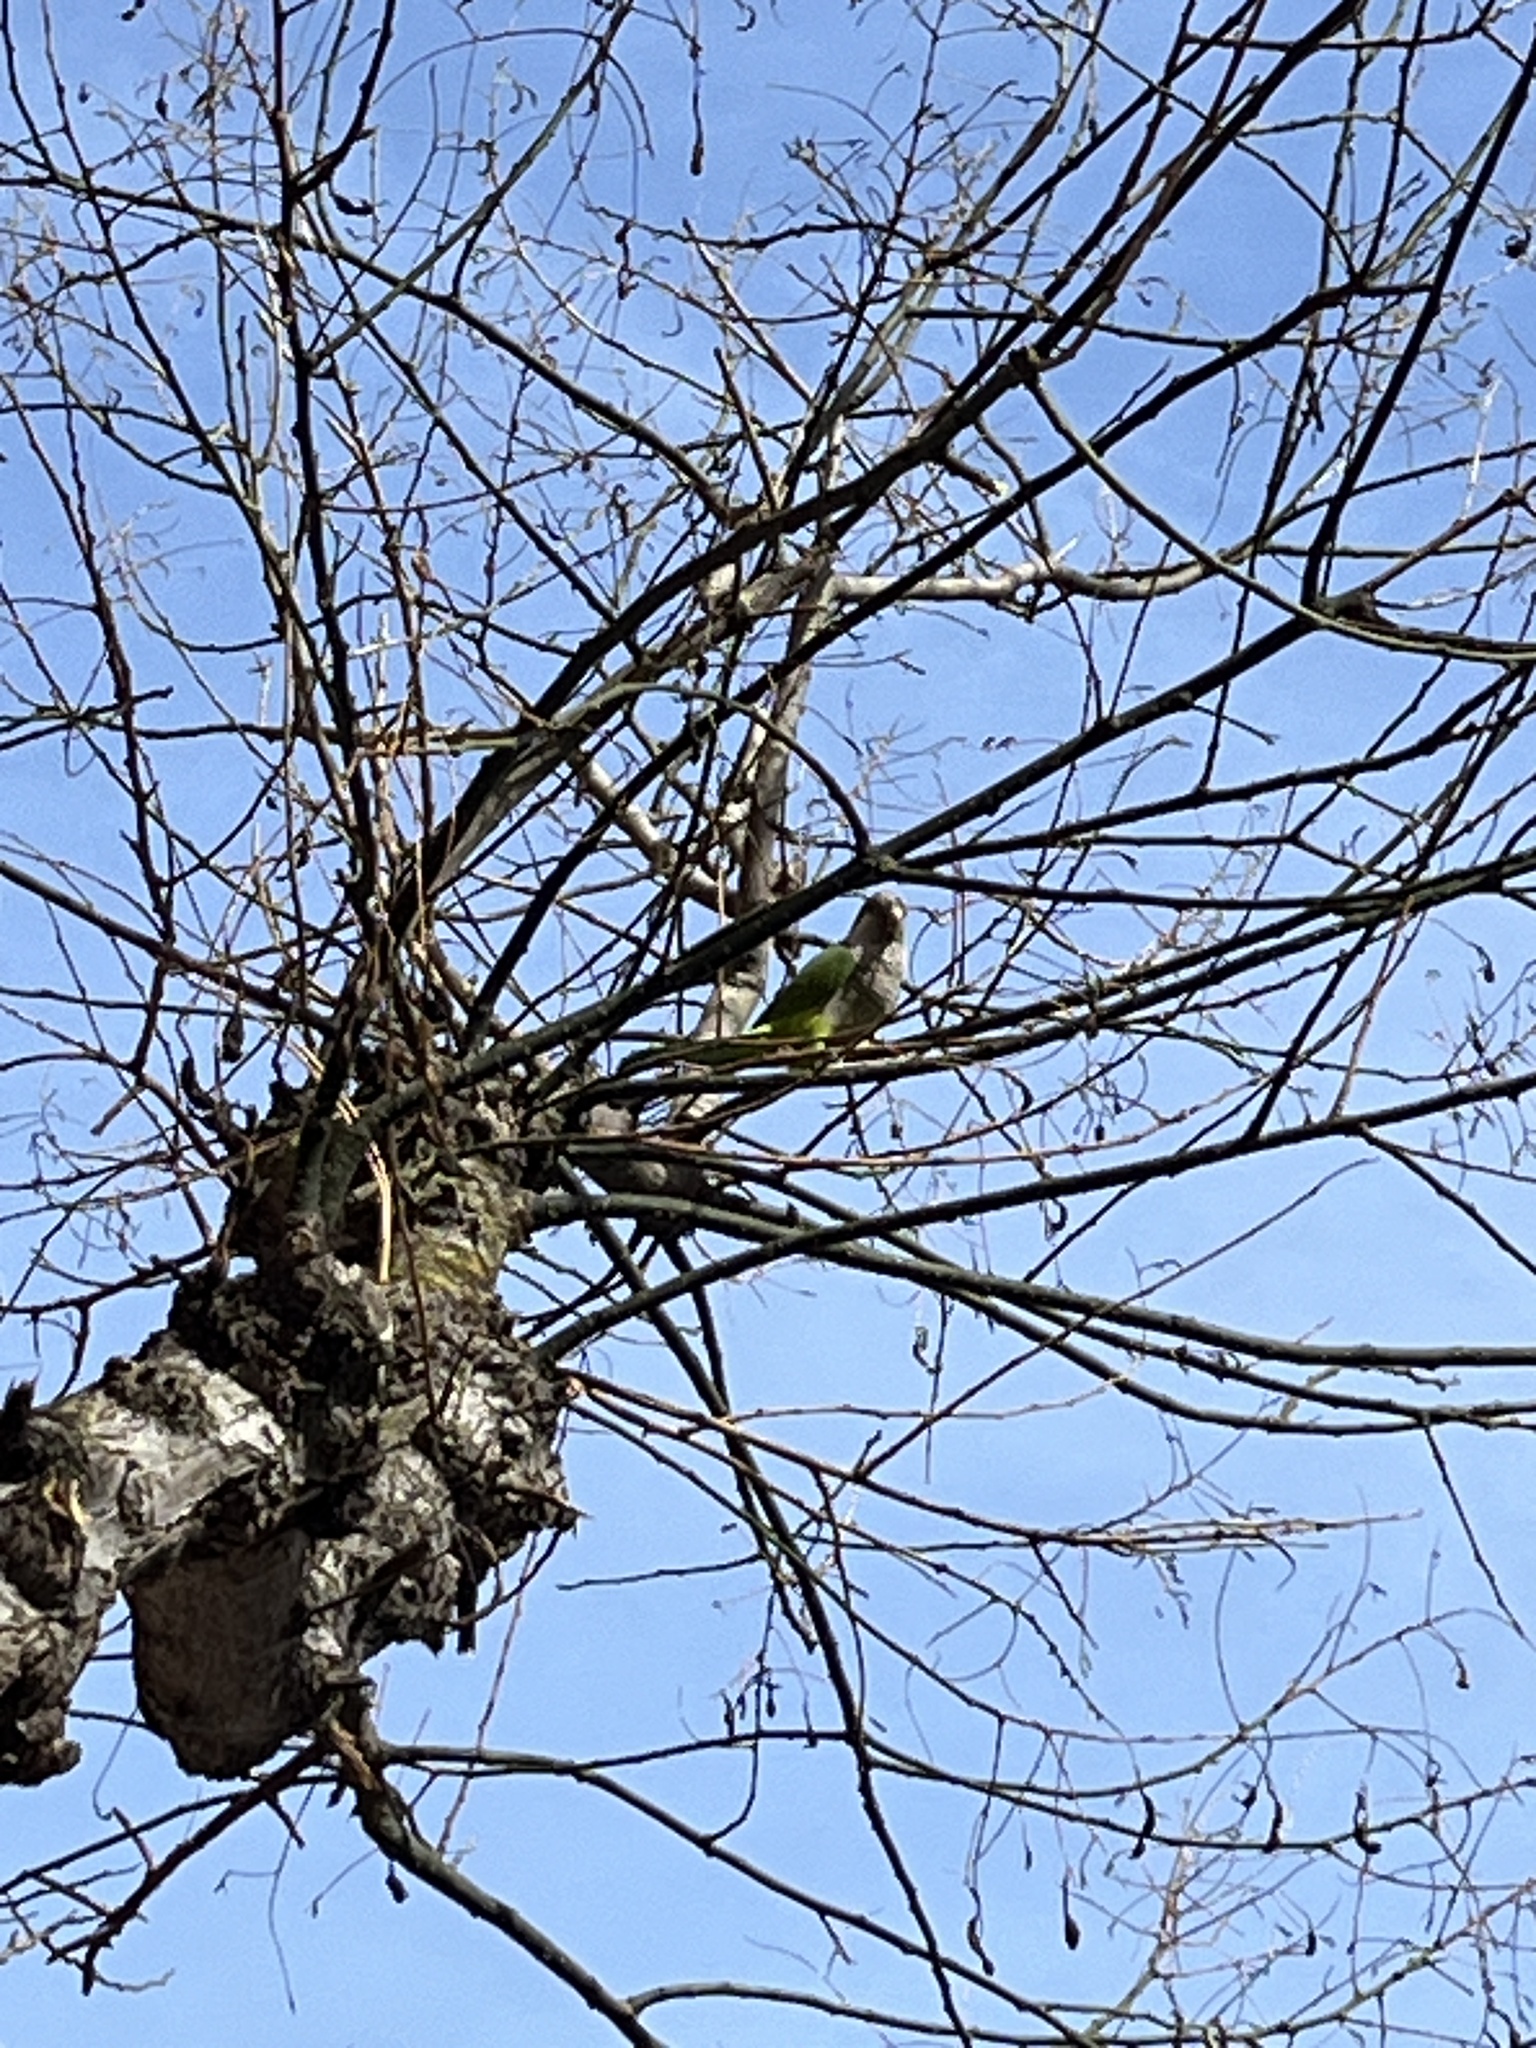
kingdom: Animalia
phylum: Chordata
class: Aves
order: Psittaciformes
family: Psittacidae
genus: Myiopsitta
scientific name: Myiopsitta monachus
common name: Monk parakeet
